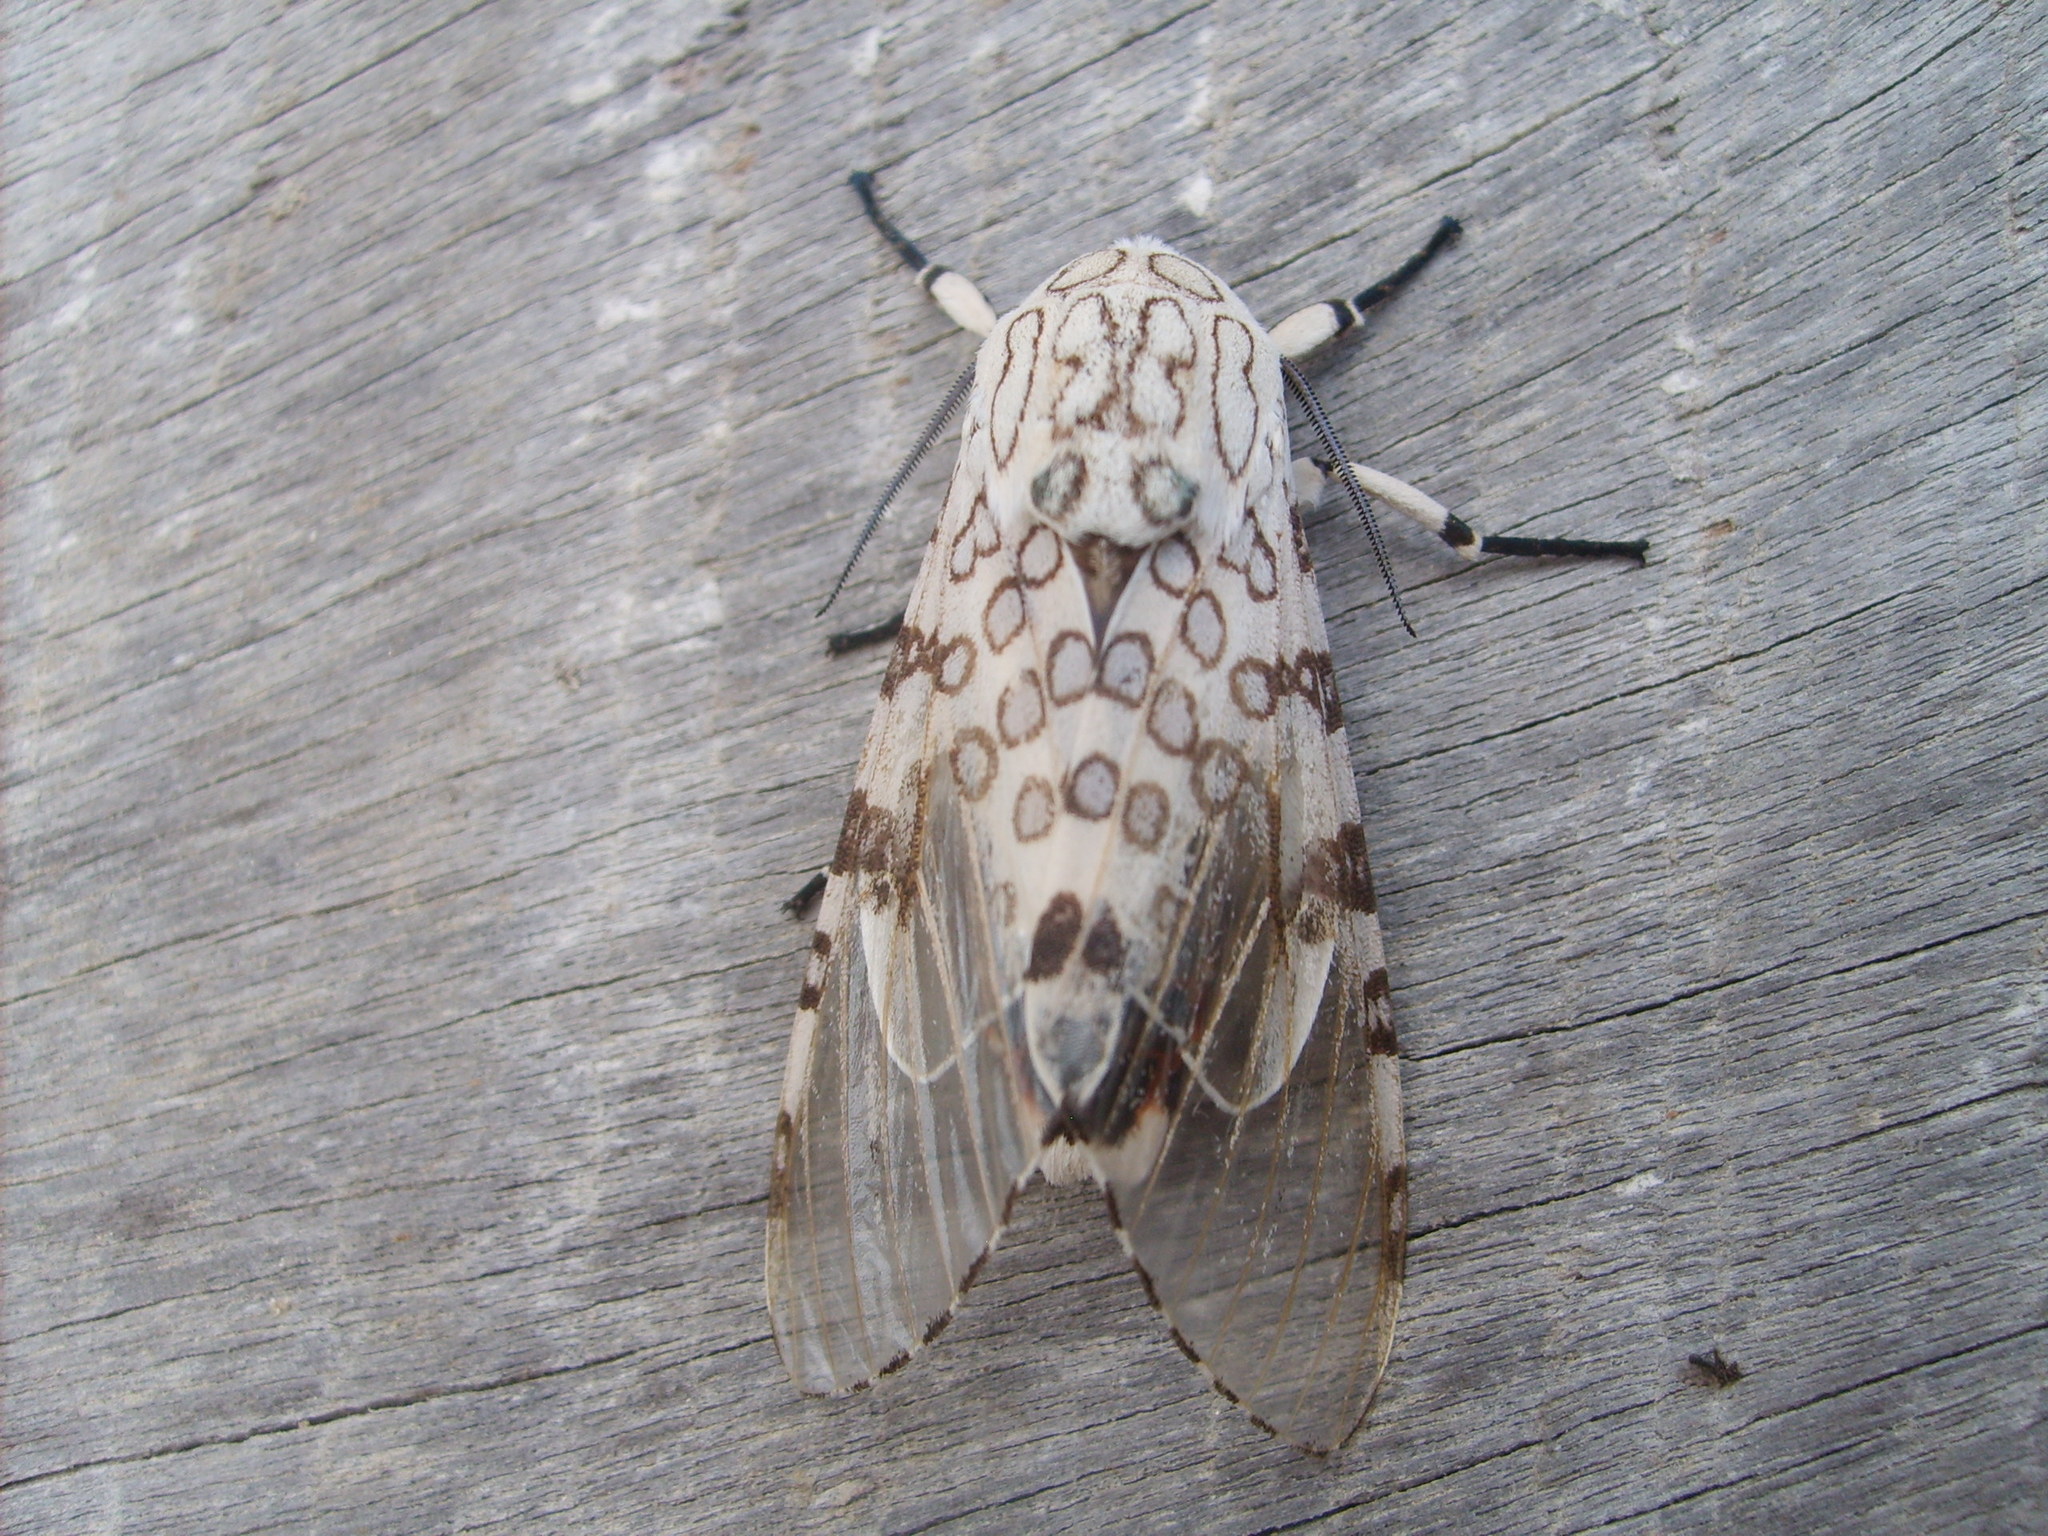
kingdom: Animalia
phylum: Arthropoda
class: Insecta
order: Lepidoptera
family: Erebidae
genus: Hypercompe
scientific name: Hypercompe scribonia
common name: Giant leopard moth
